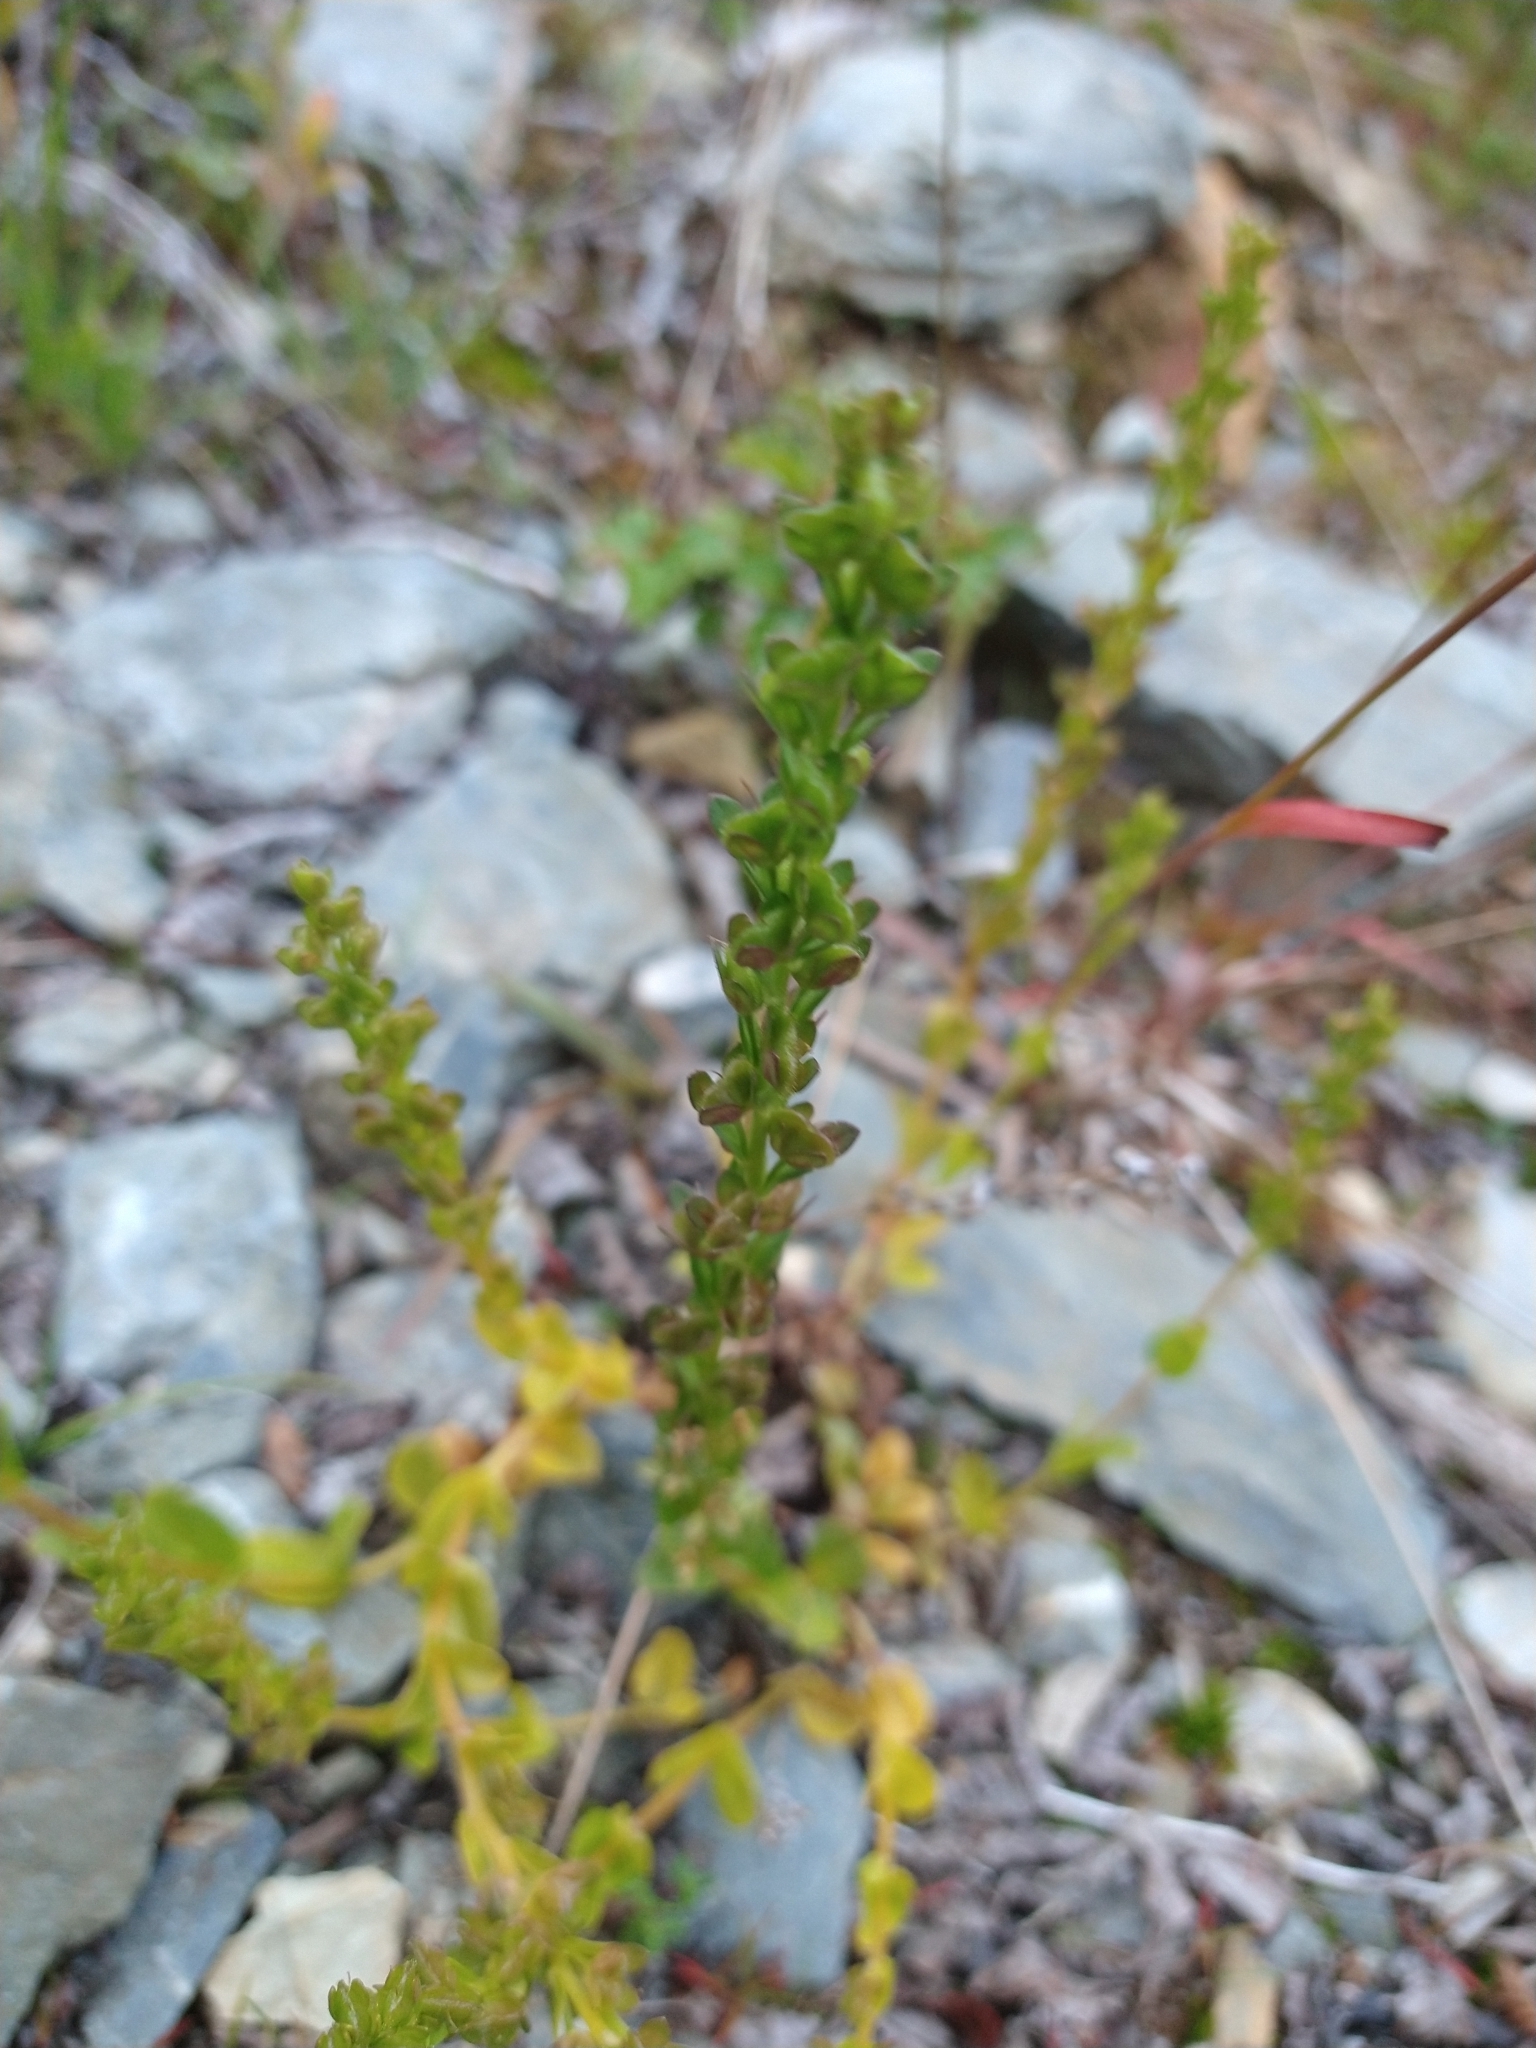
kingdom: Plantae
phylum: Tracheophyta
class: Magnoliopsida
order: Lamiales
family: Plantaginaceae
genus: Veronica
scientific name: Veronica serpyllifolia
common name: Thyme-leaved speedwell
